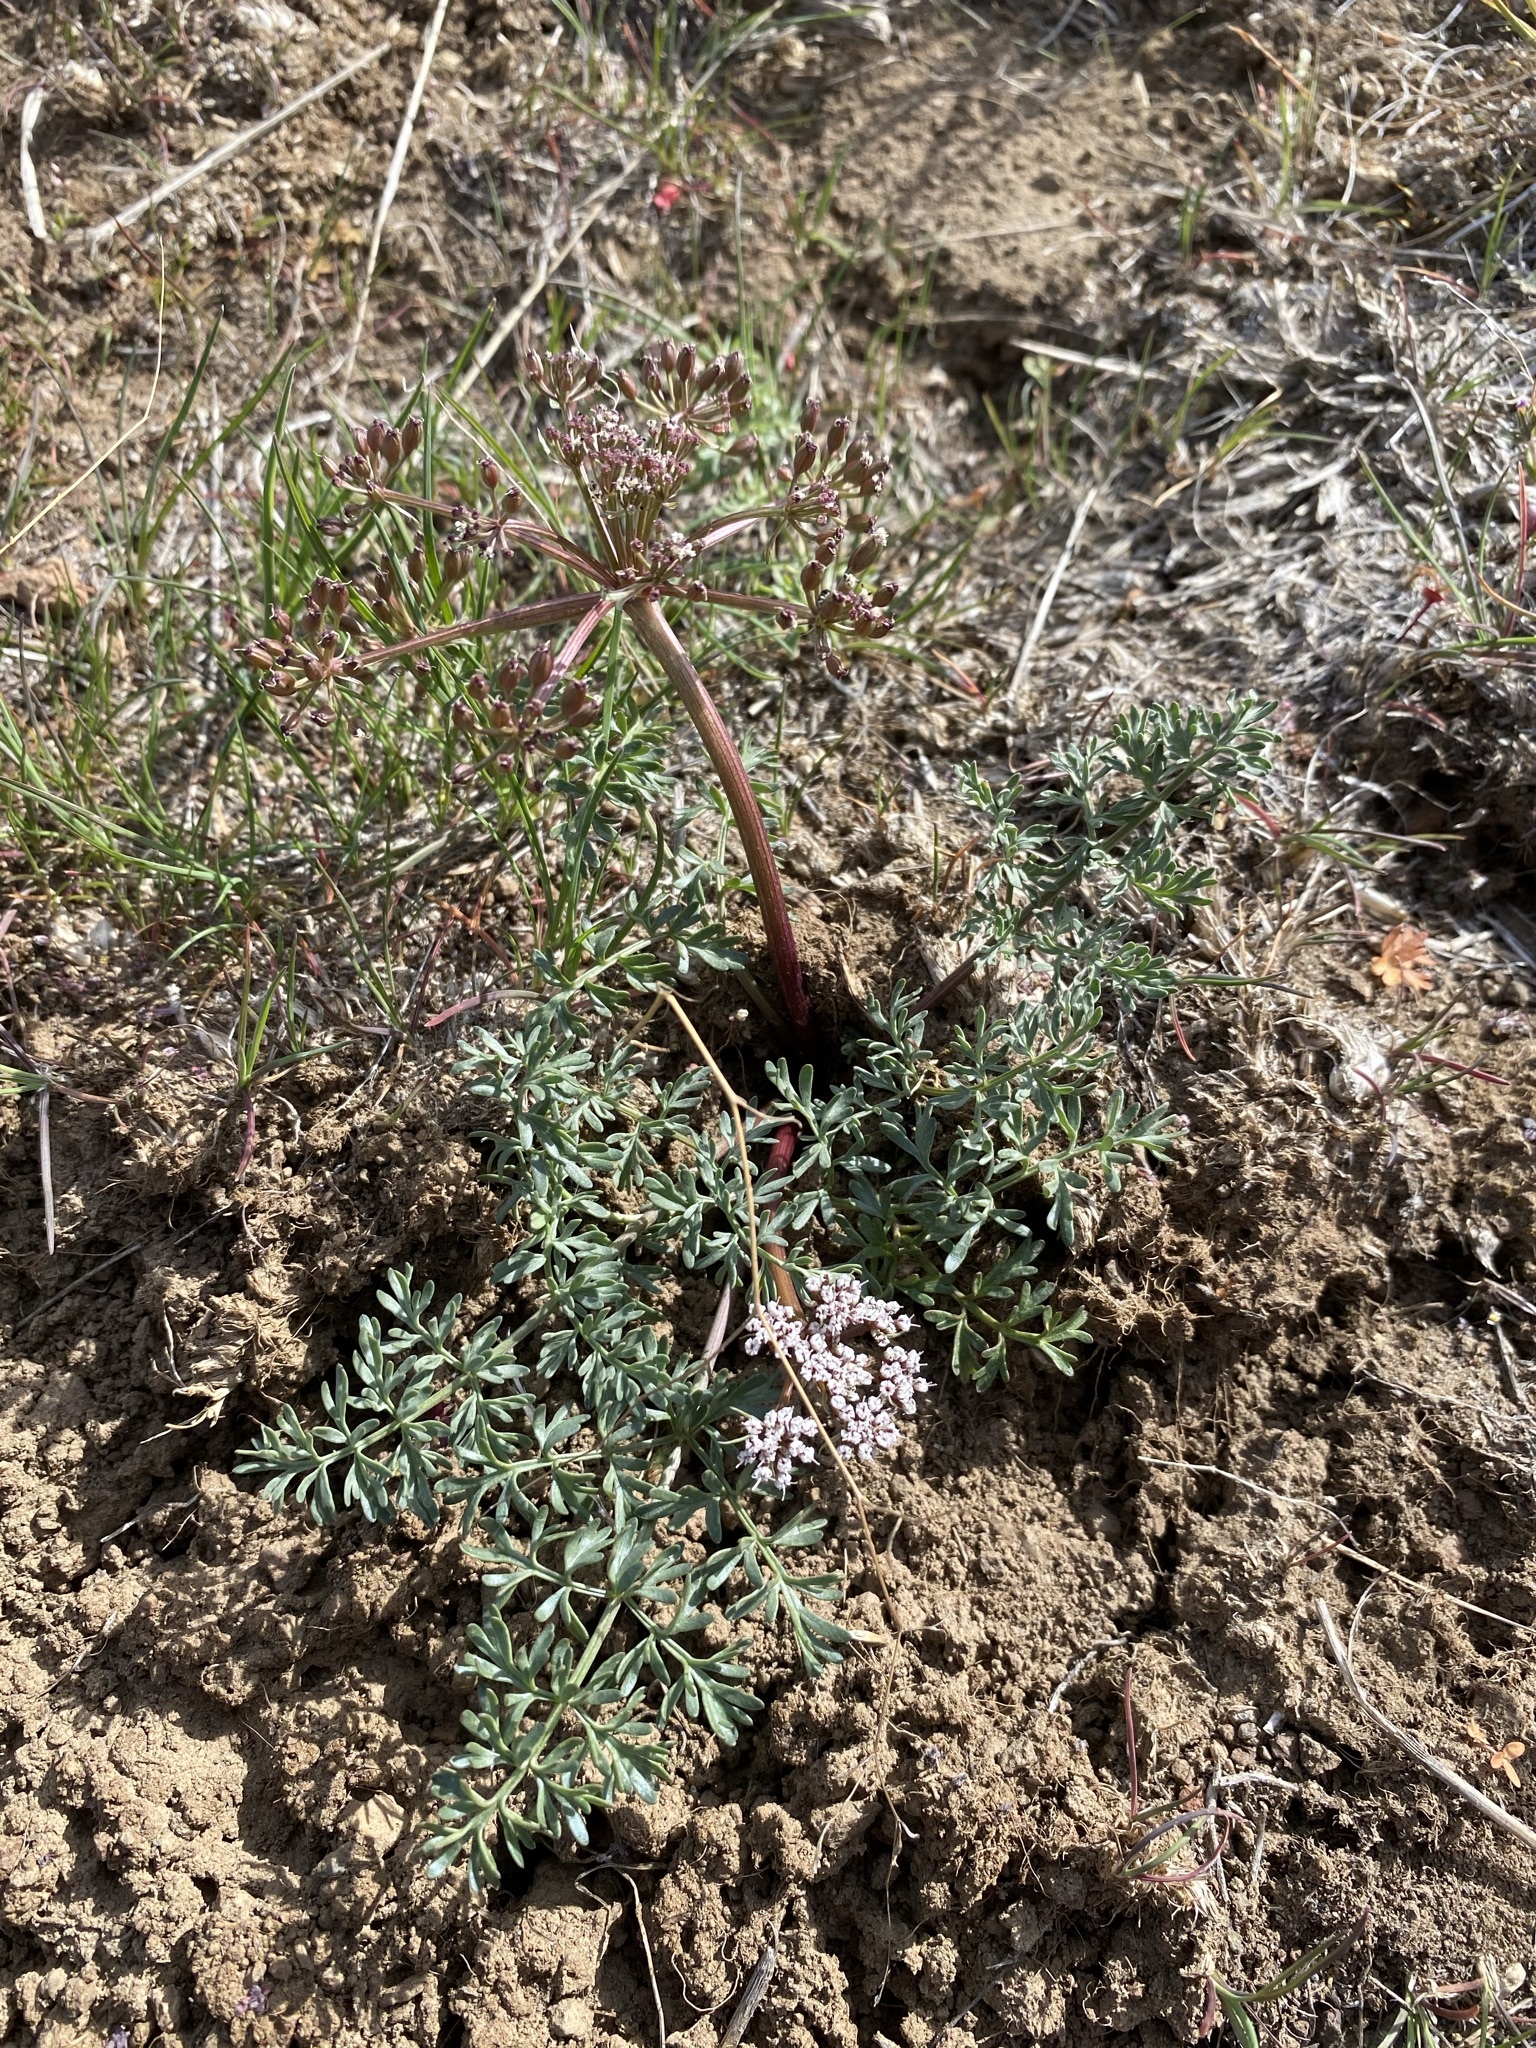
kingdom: Plantae
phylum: Tracheophyta
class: Magnoliopsida
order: Apiales
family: Apiaceae
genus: Lomatium
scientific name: Lomatium canbyi
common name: Chucklusa
